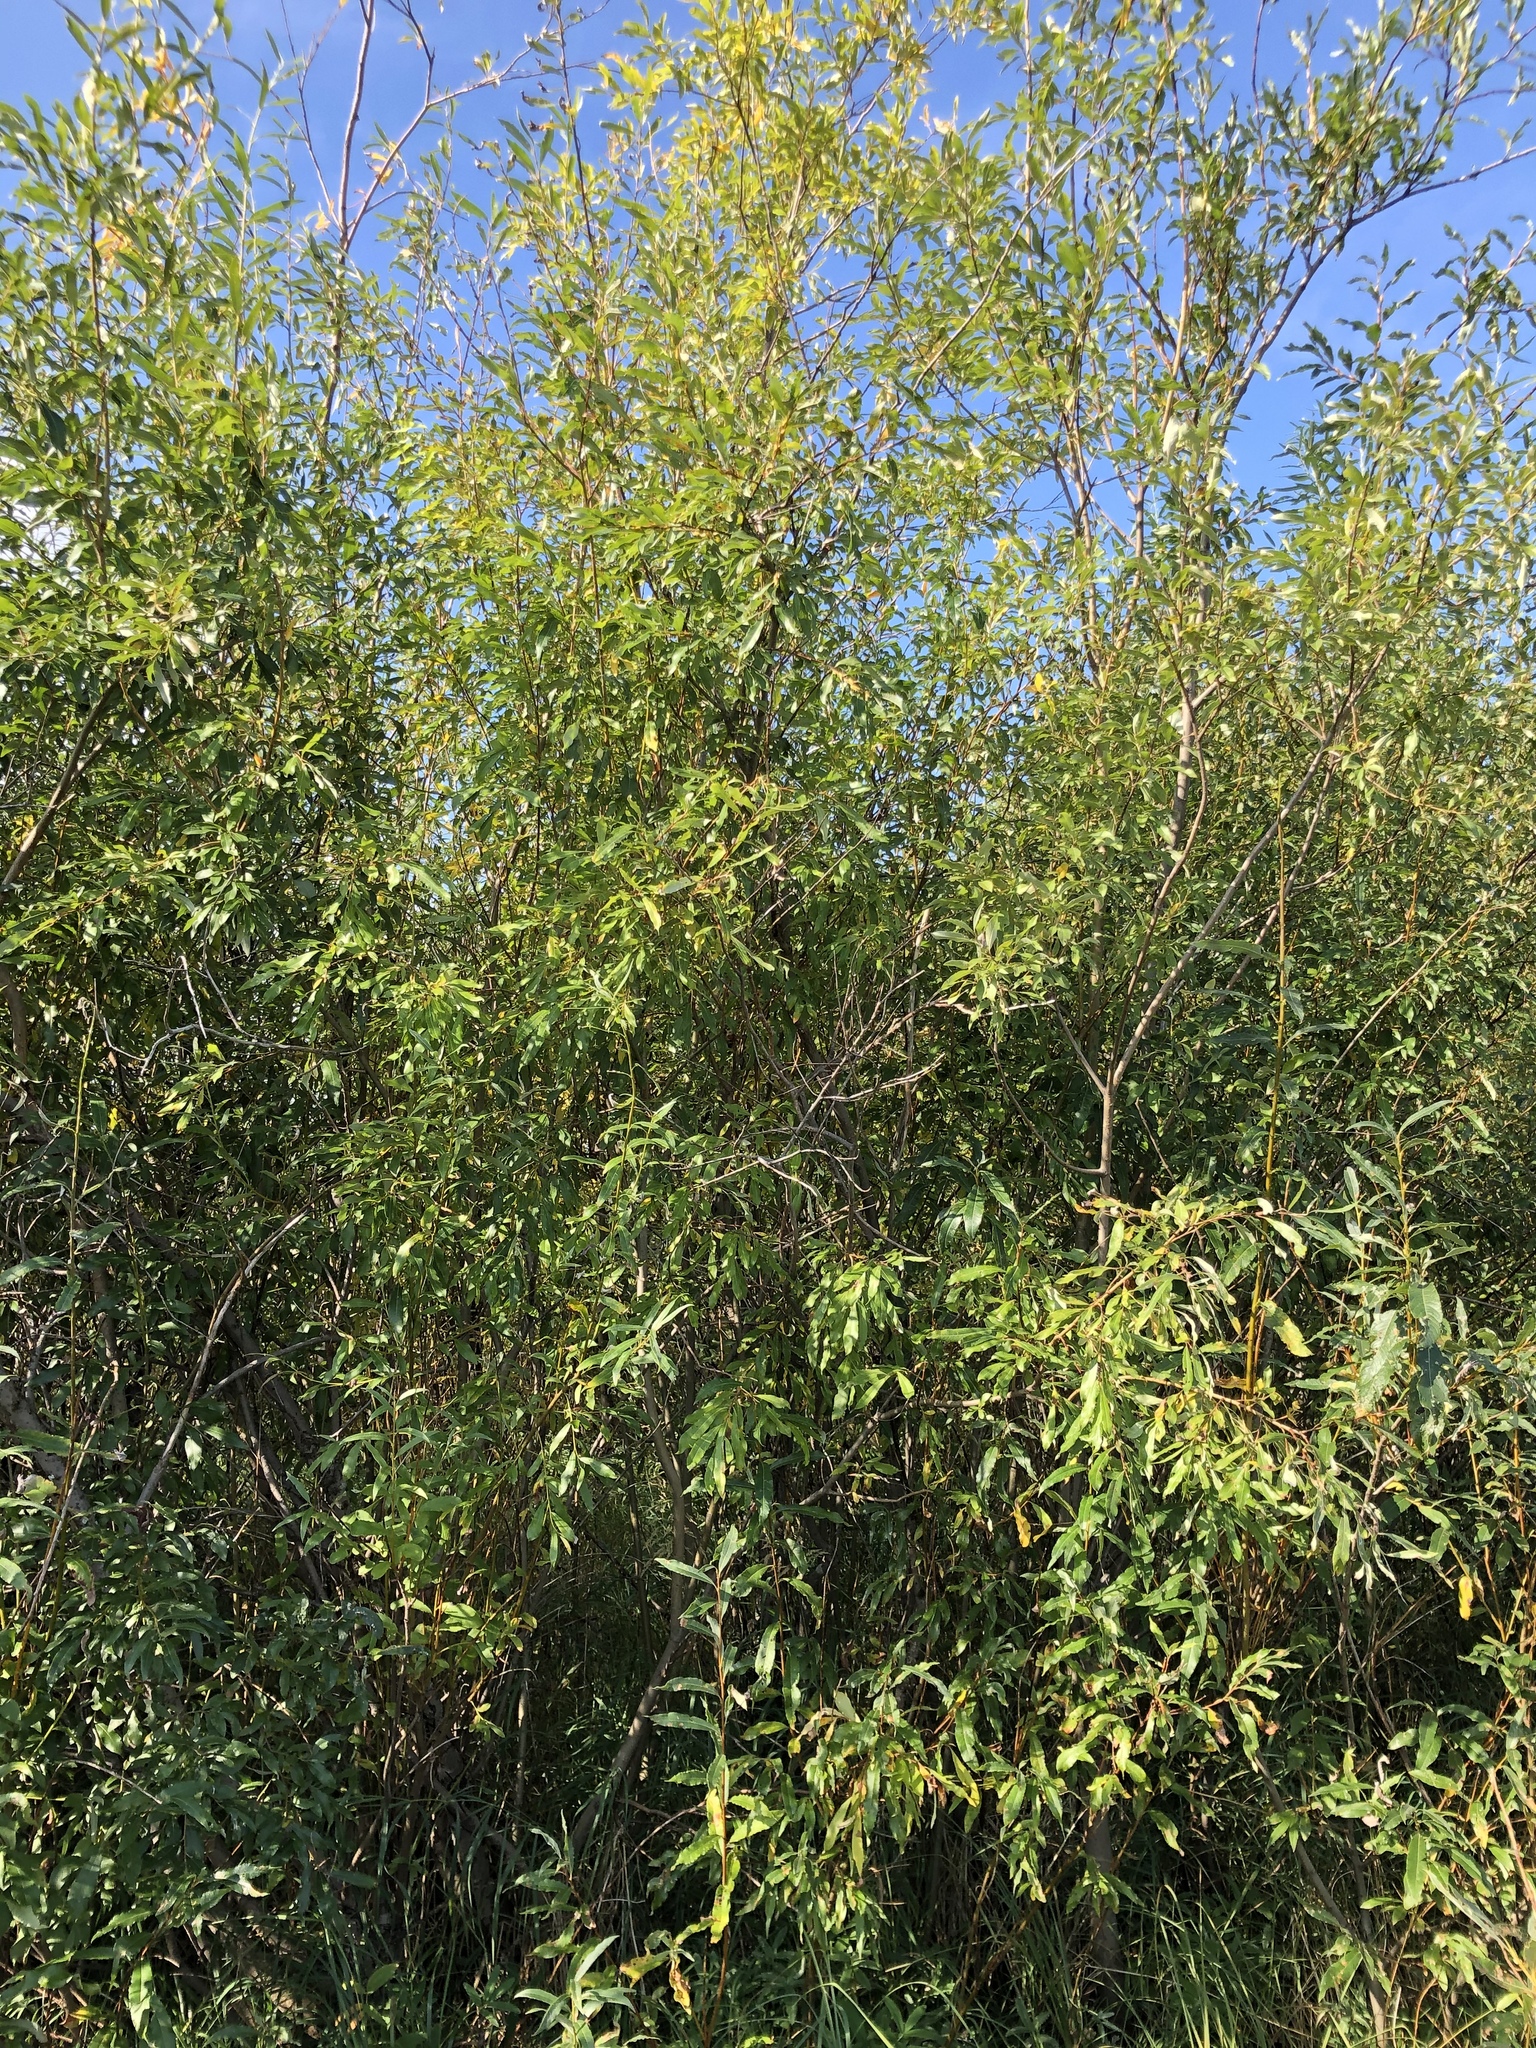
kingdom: Plantae
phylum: Tracheophyta
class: Magnoliopsida
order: Malpighiales
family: Salicaceae
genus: Salix
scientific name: Salix gmelinii
